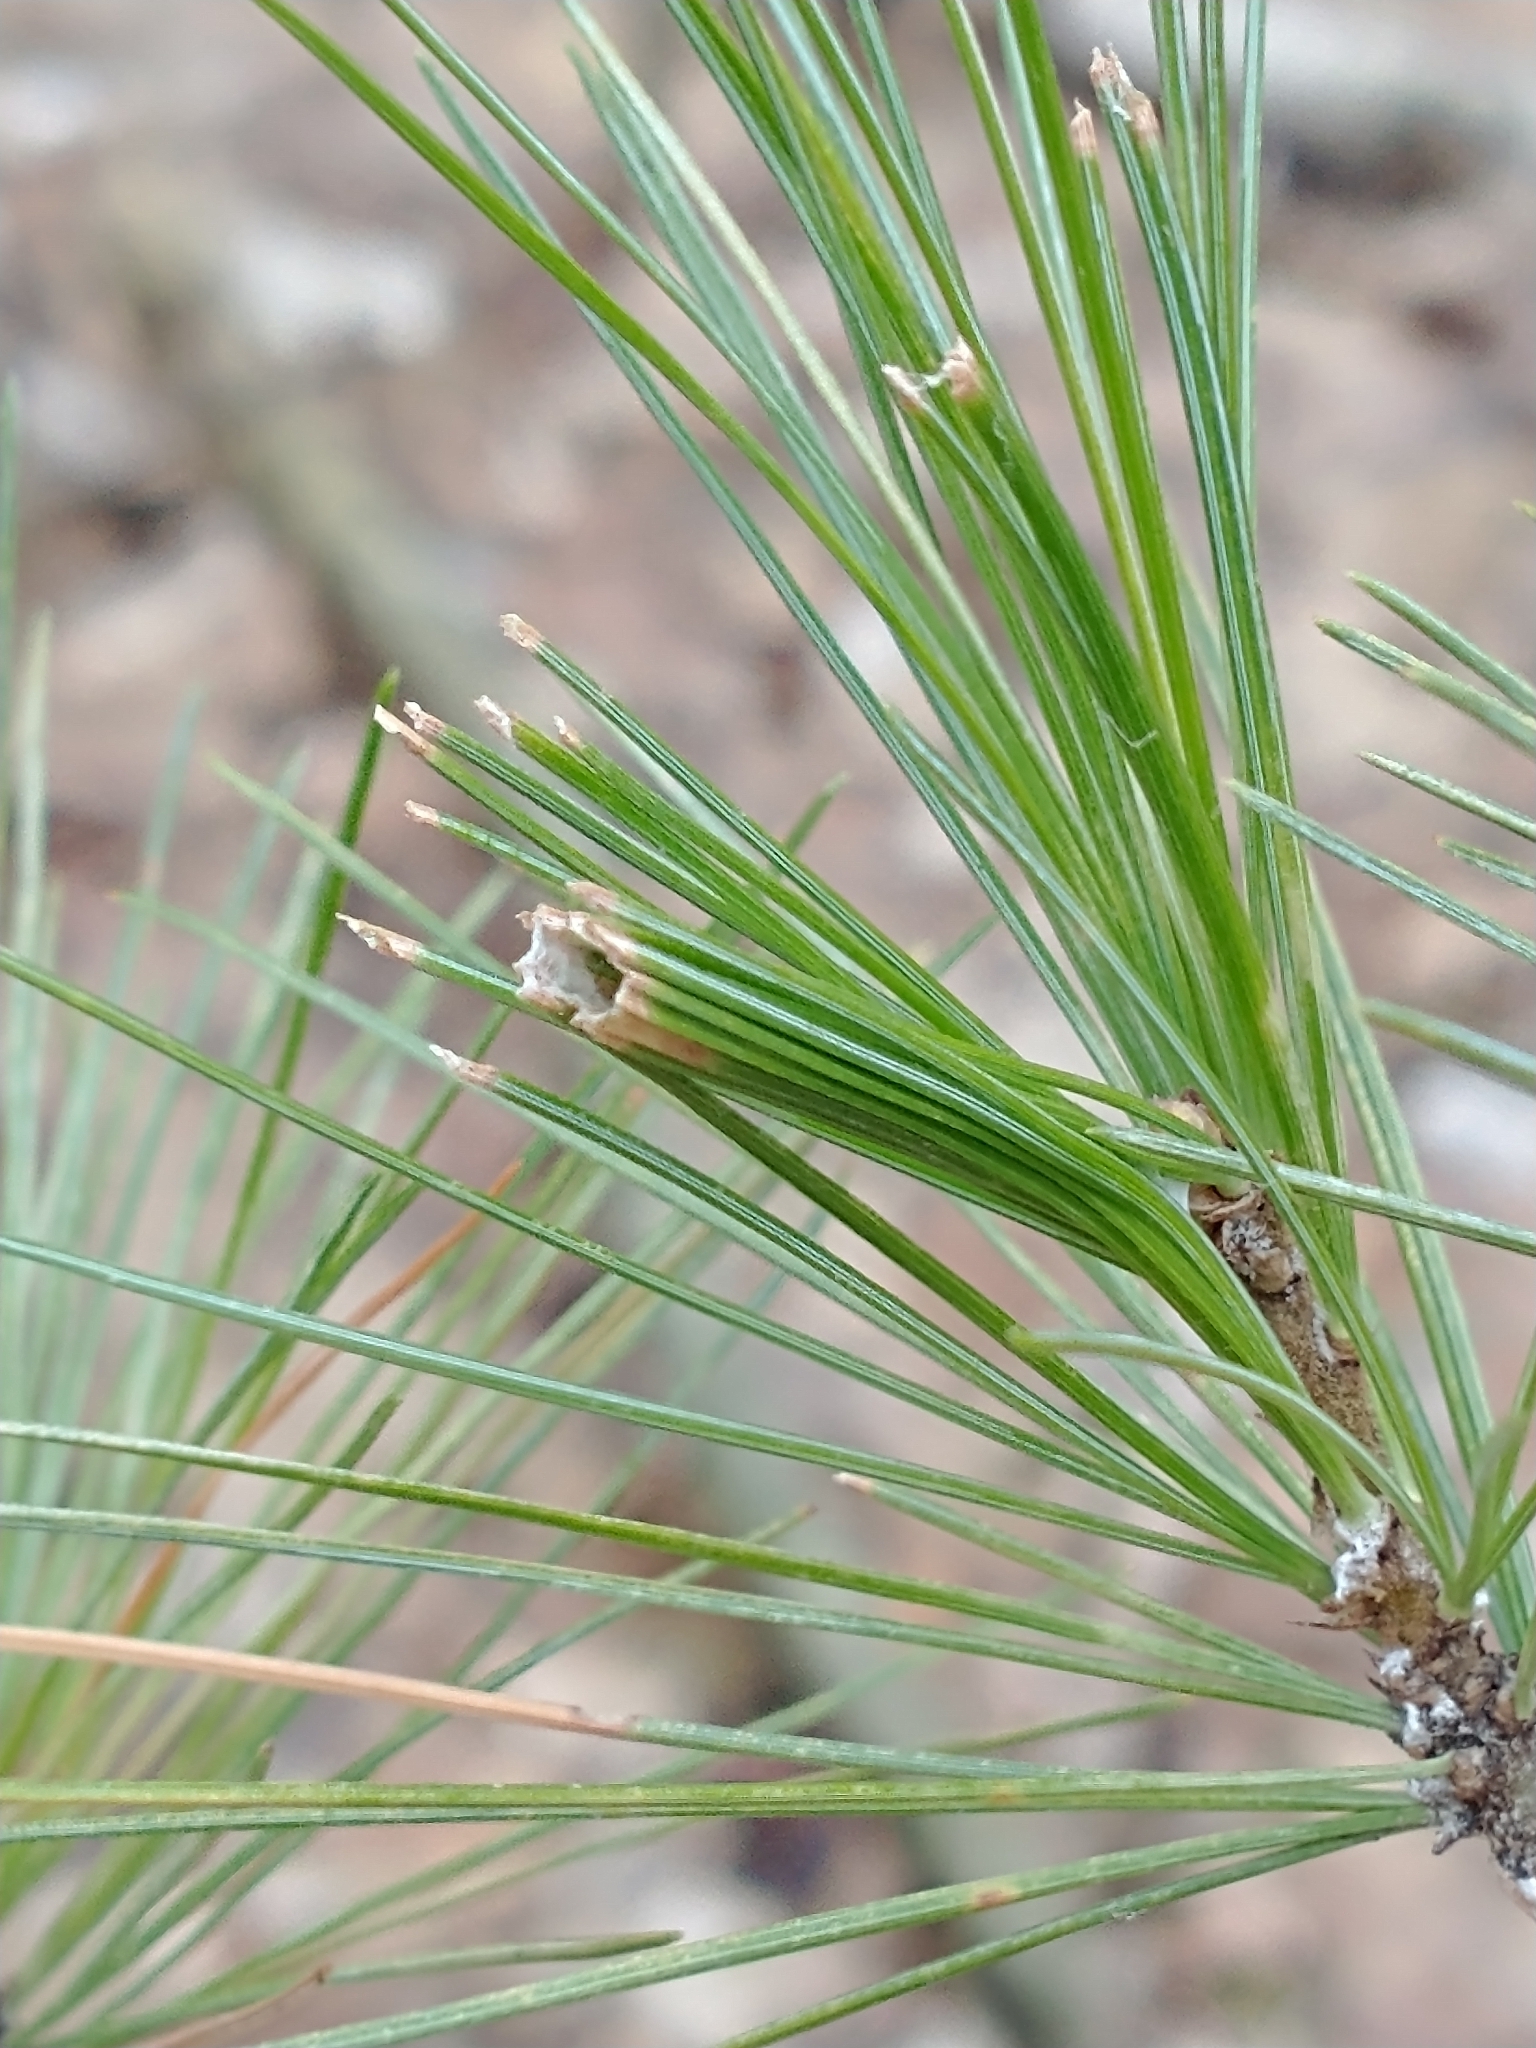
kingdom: Animalia
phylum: Arthropoda
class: Insecta
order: Lepidoptera
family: Tortricidae
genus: Argyrotaenia
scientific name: Argyrotaenia pinatubana
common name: Pine tube moth
